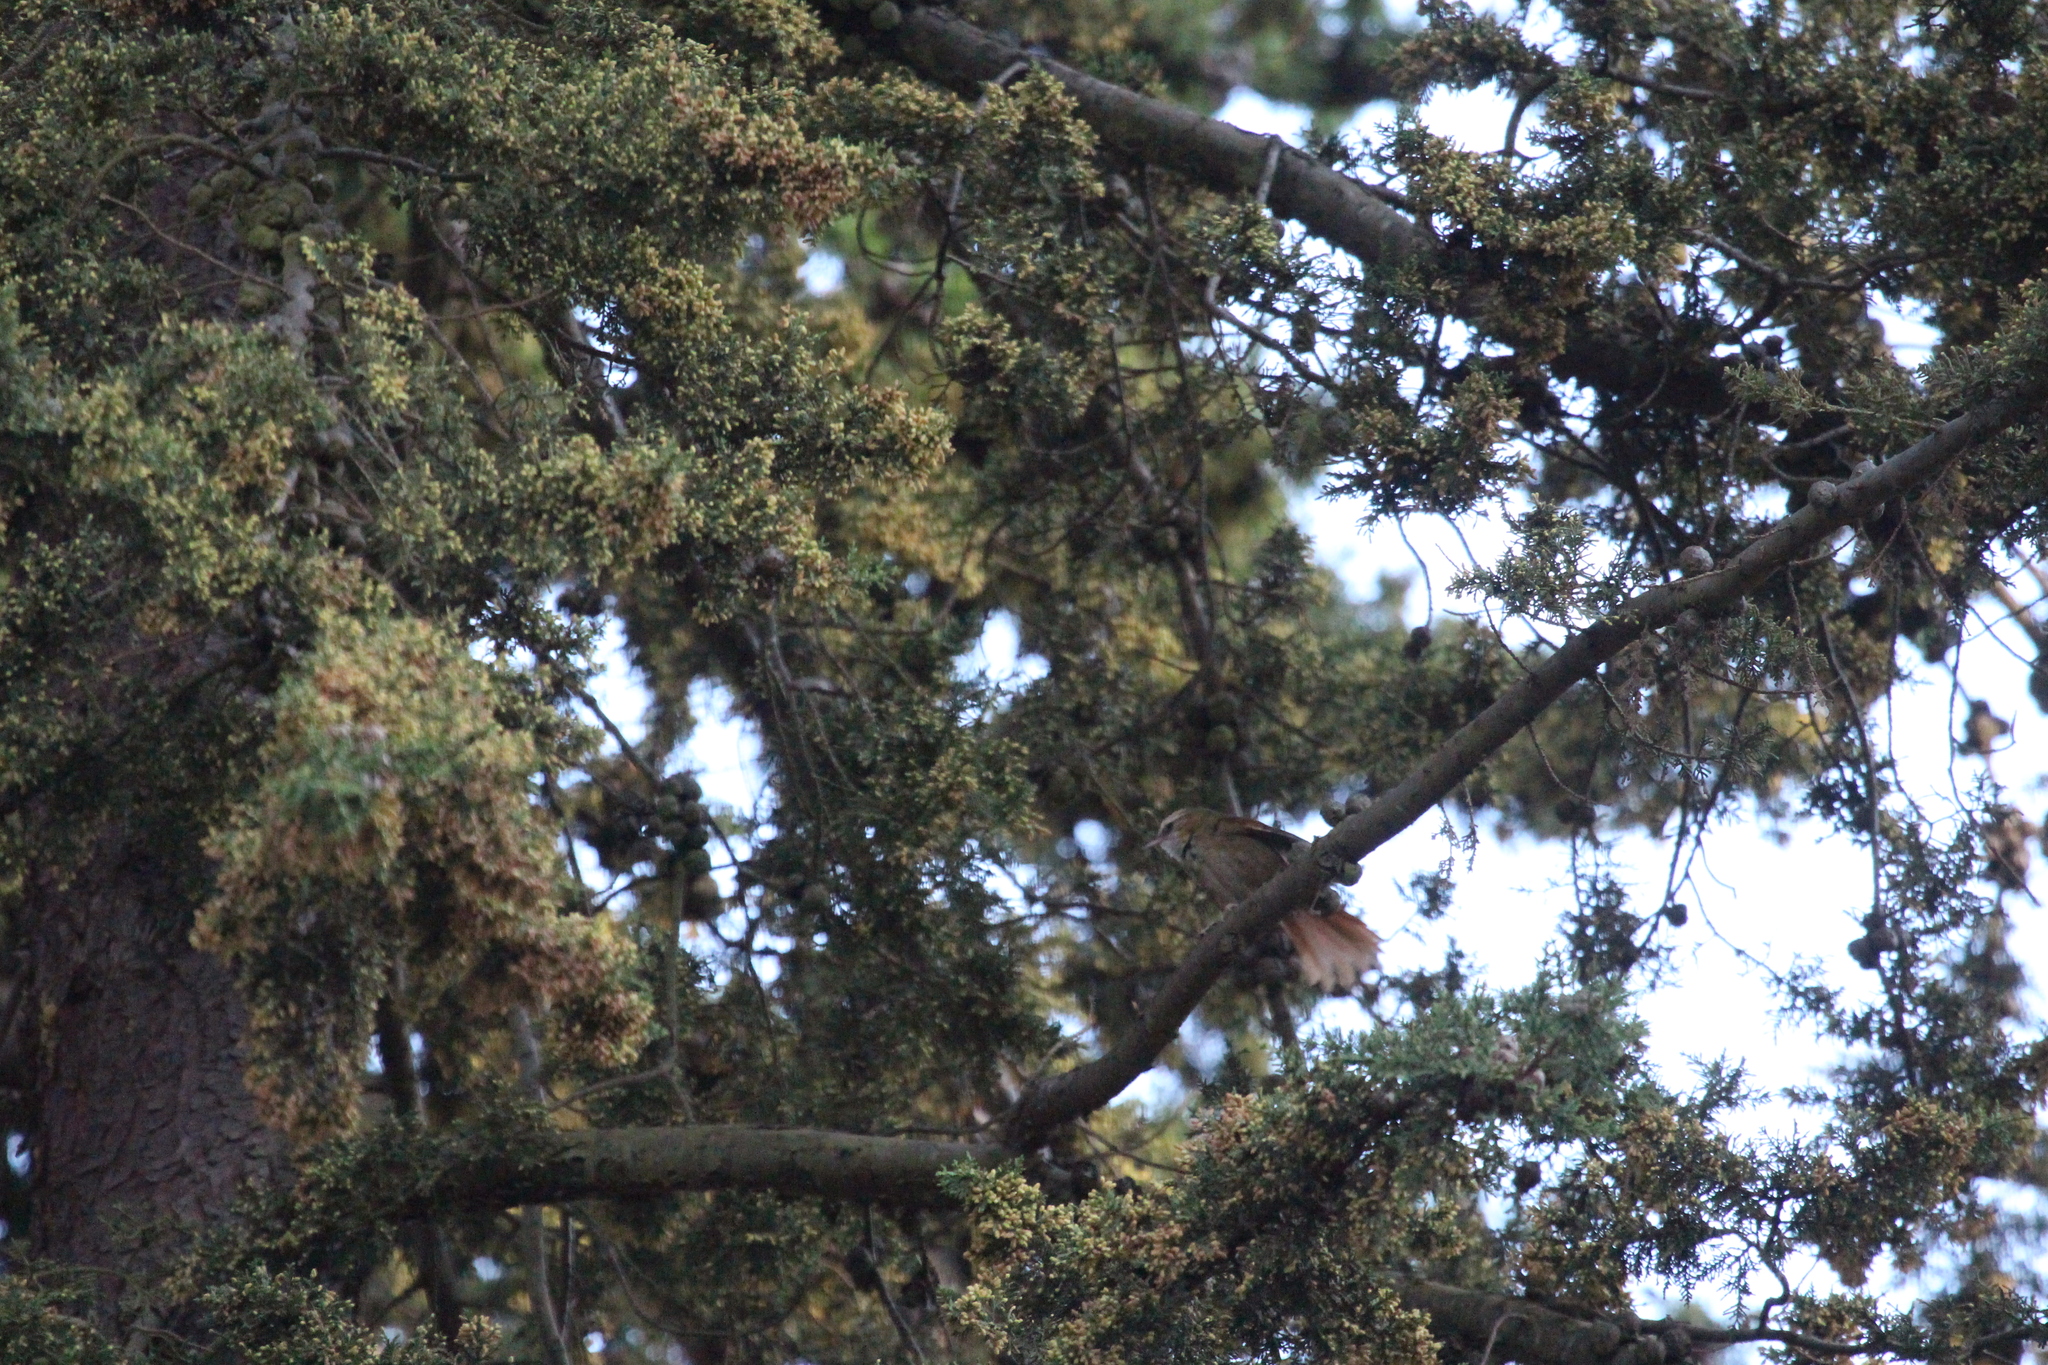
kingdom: Animalia
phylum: Chordata
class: Aves
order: Passeriformes
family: Furnariidae
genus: Cranioleuca
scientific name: Cranioleuca albicapilla
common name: Creamy-crested spinetail
